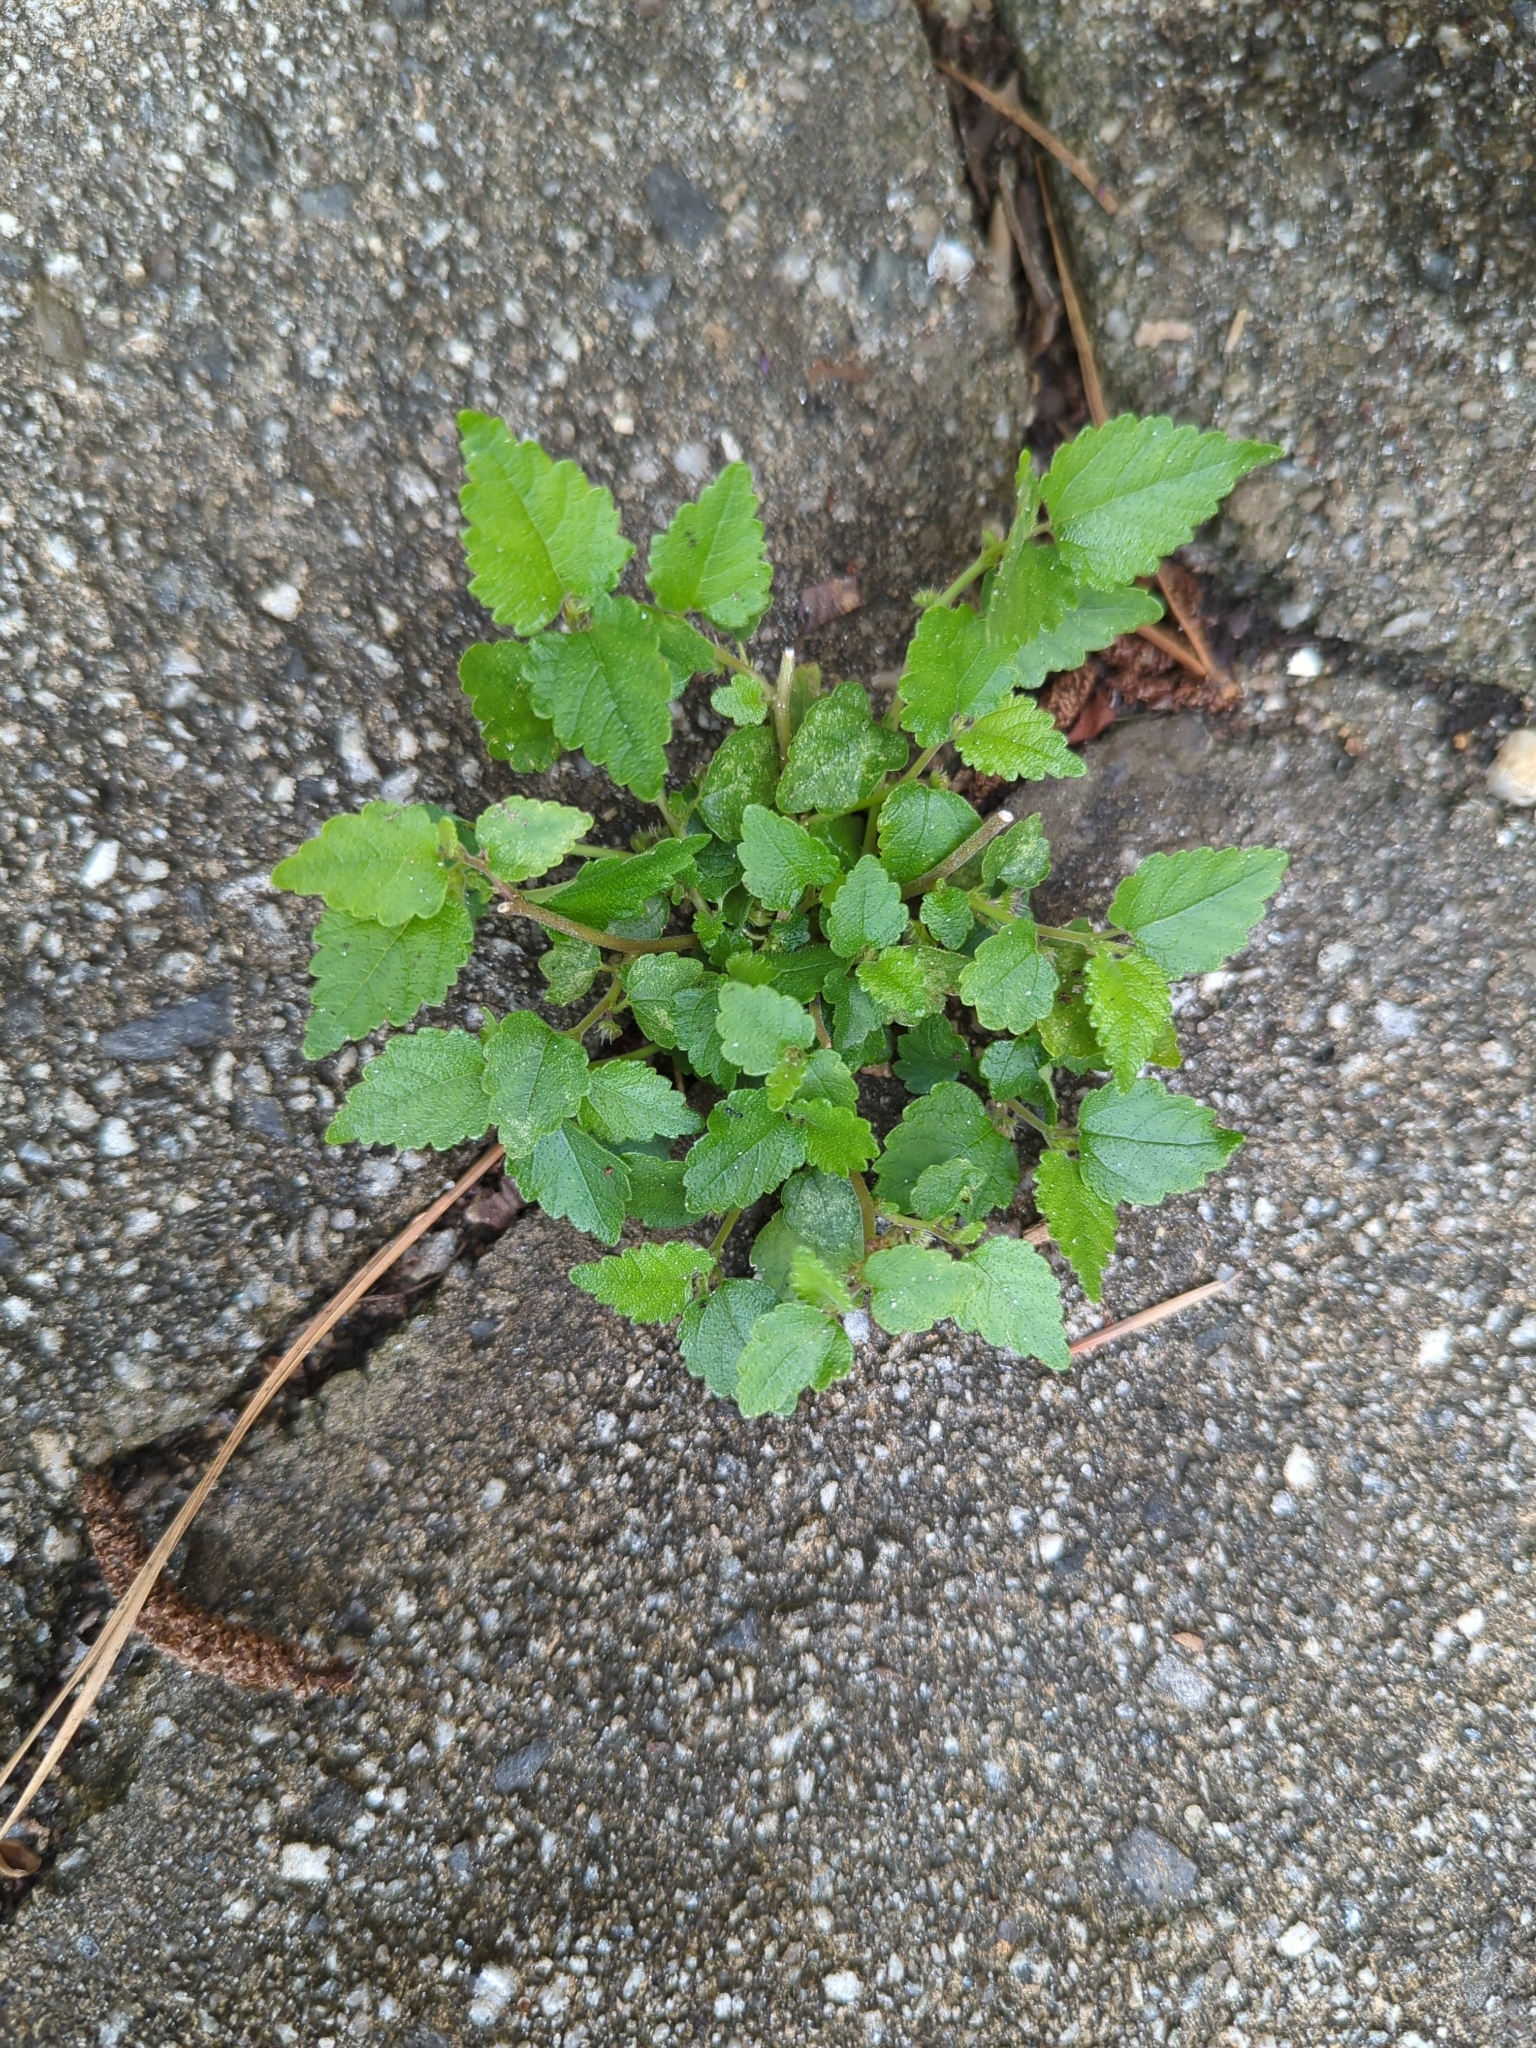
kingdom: Plantae
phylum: Tracheophyta
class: Magnoliopsida
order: Rosales
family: Moraceae
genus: Fatoua
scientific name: Fatoua villosa
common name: Hairy crabweed
